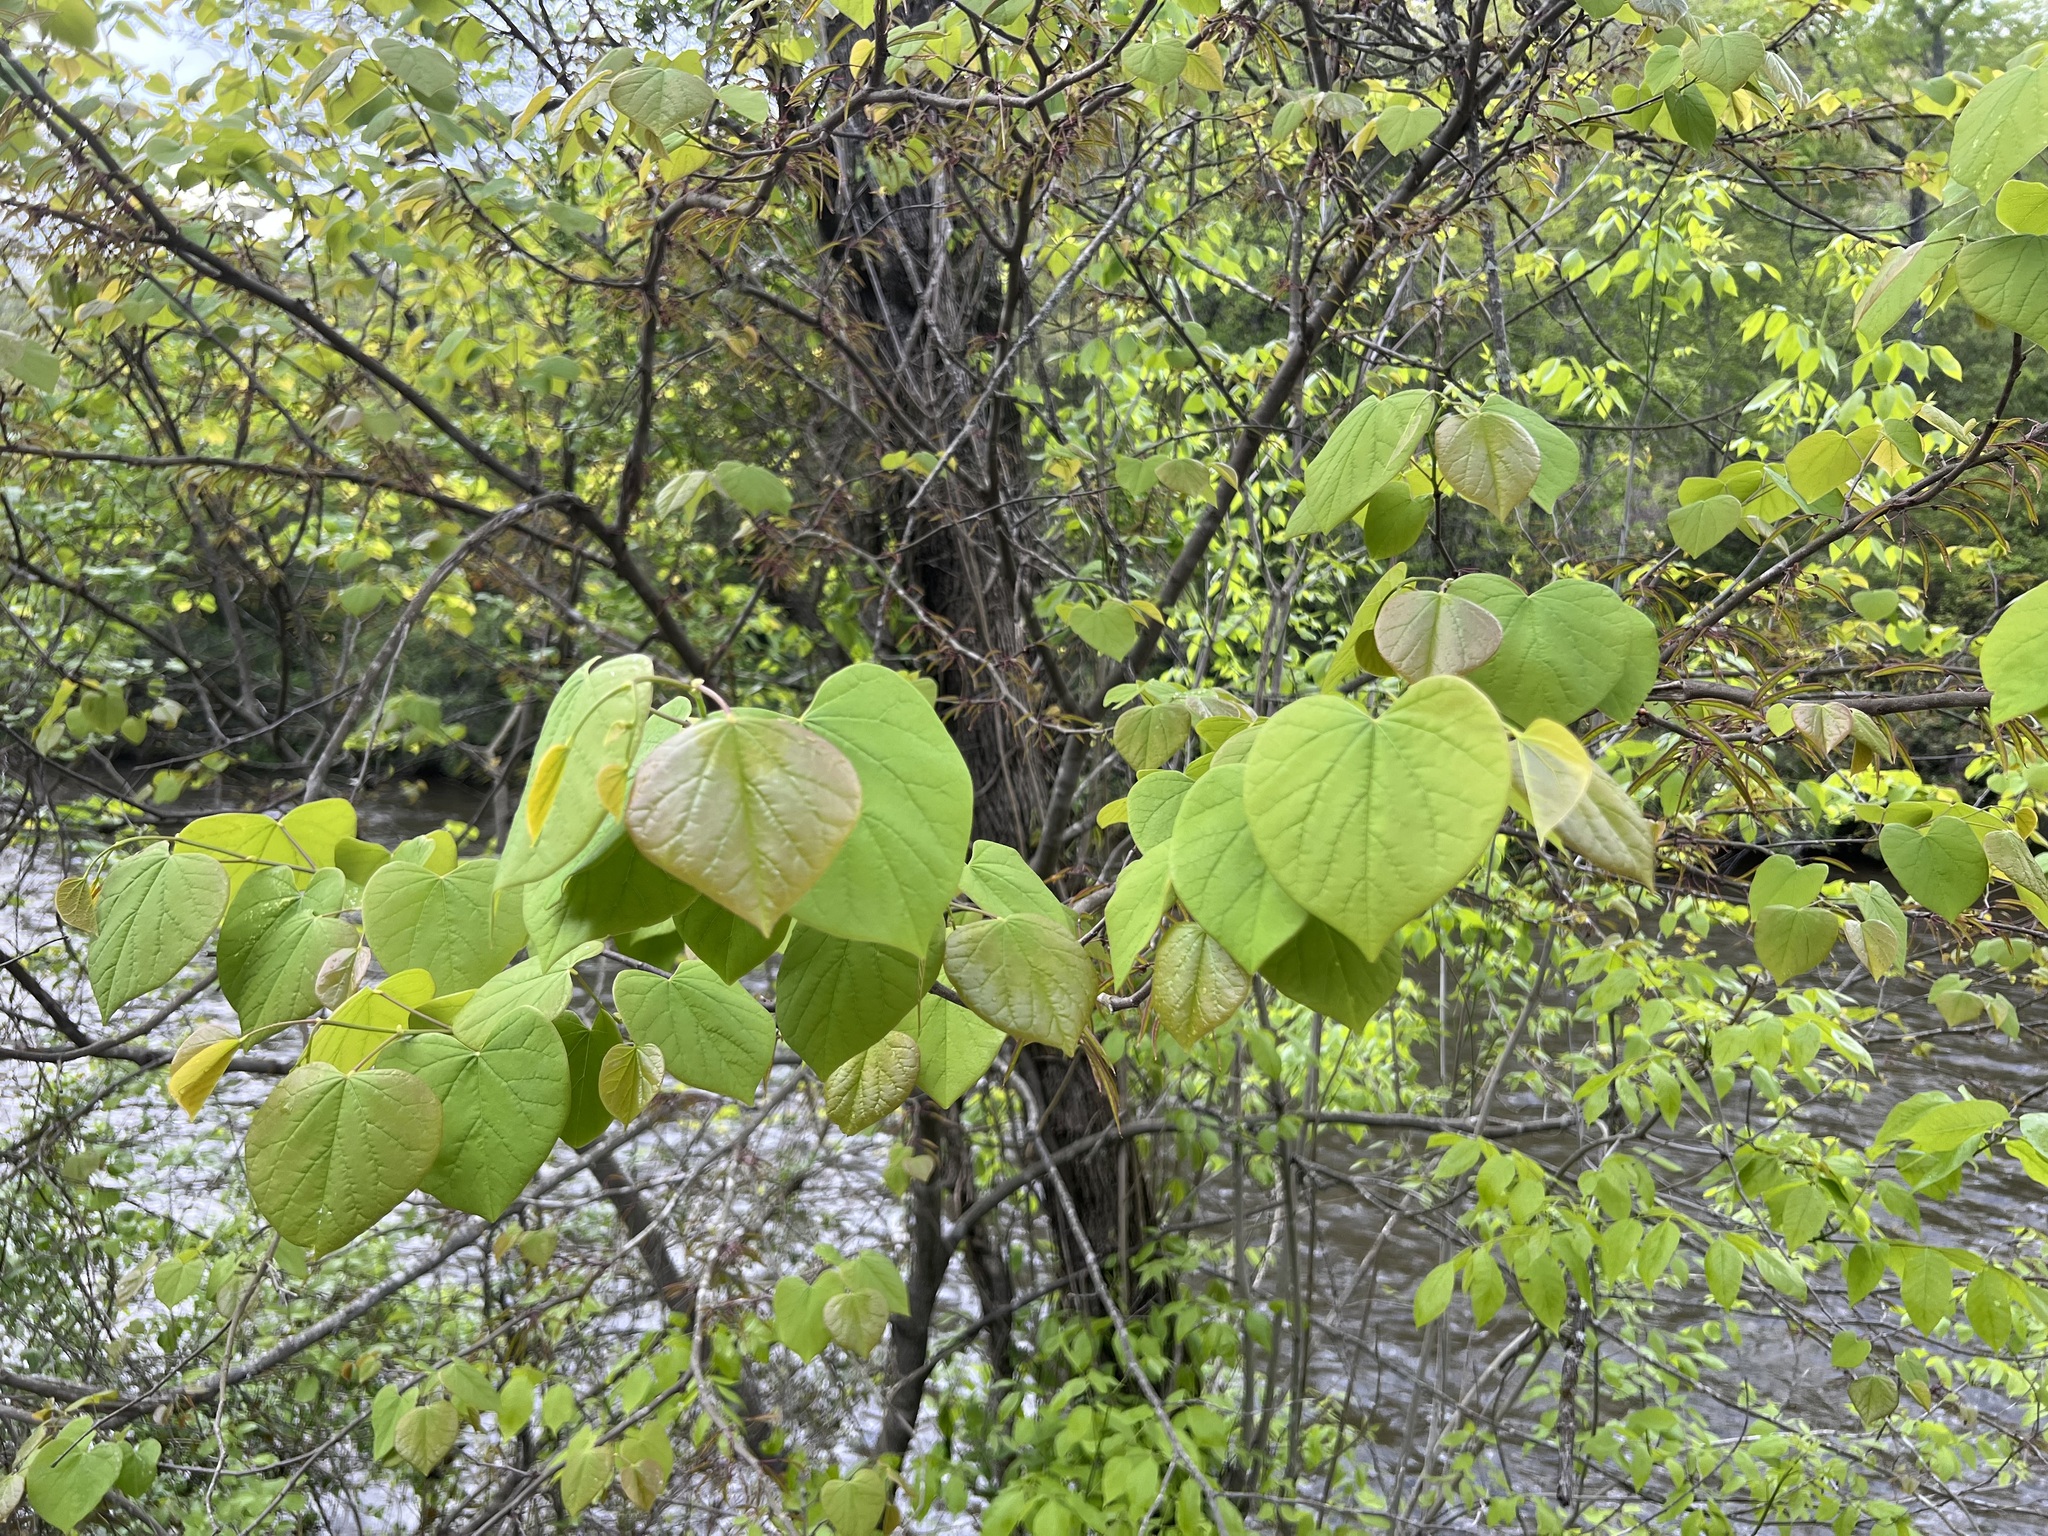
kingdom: Plantae
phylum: Tracheophyta
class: Magnoliopsida
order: Fabales
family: Fabaceae
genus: Cercis
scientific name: Cercis canadensis
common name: Eastern redbud
